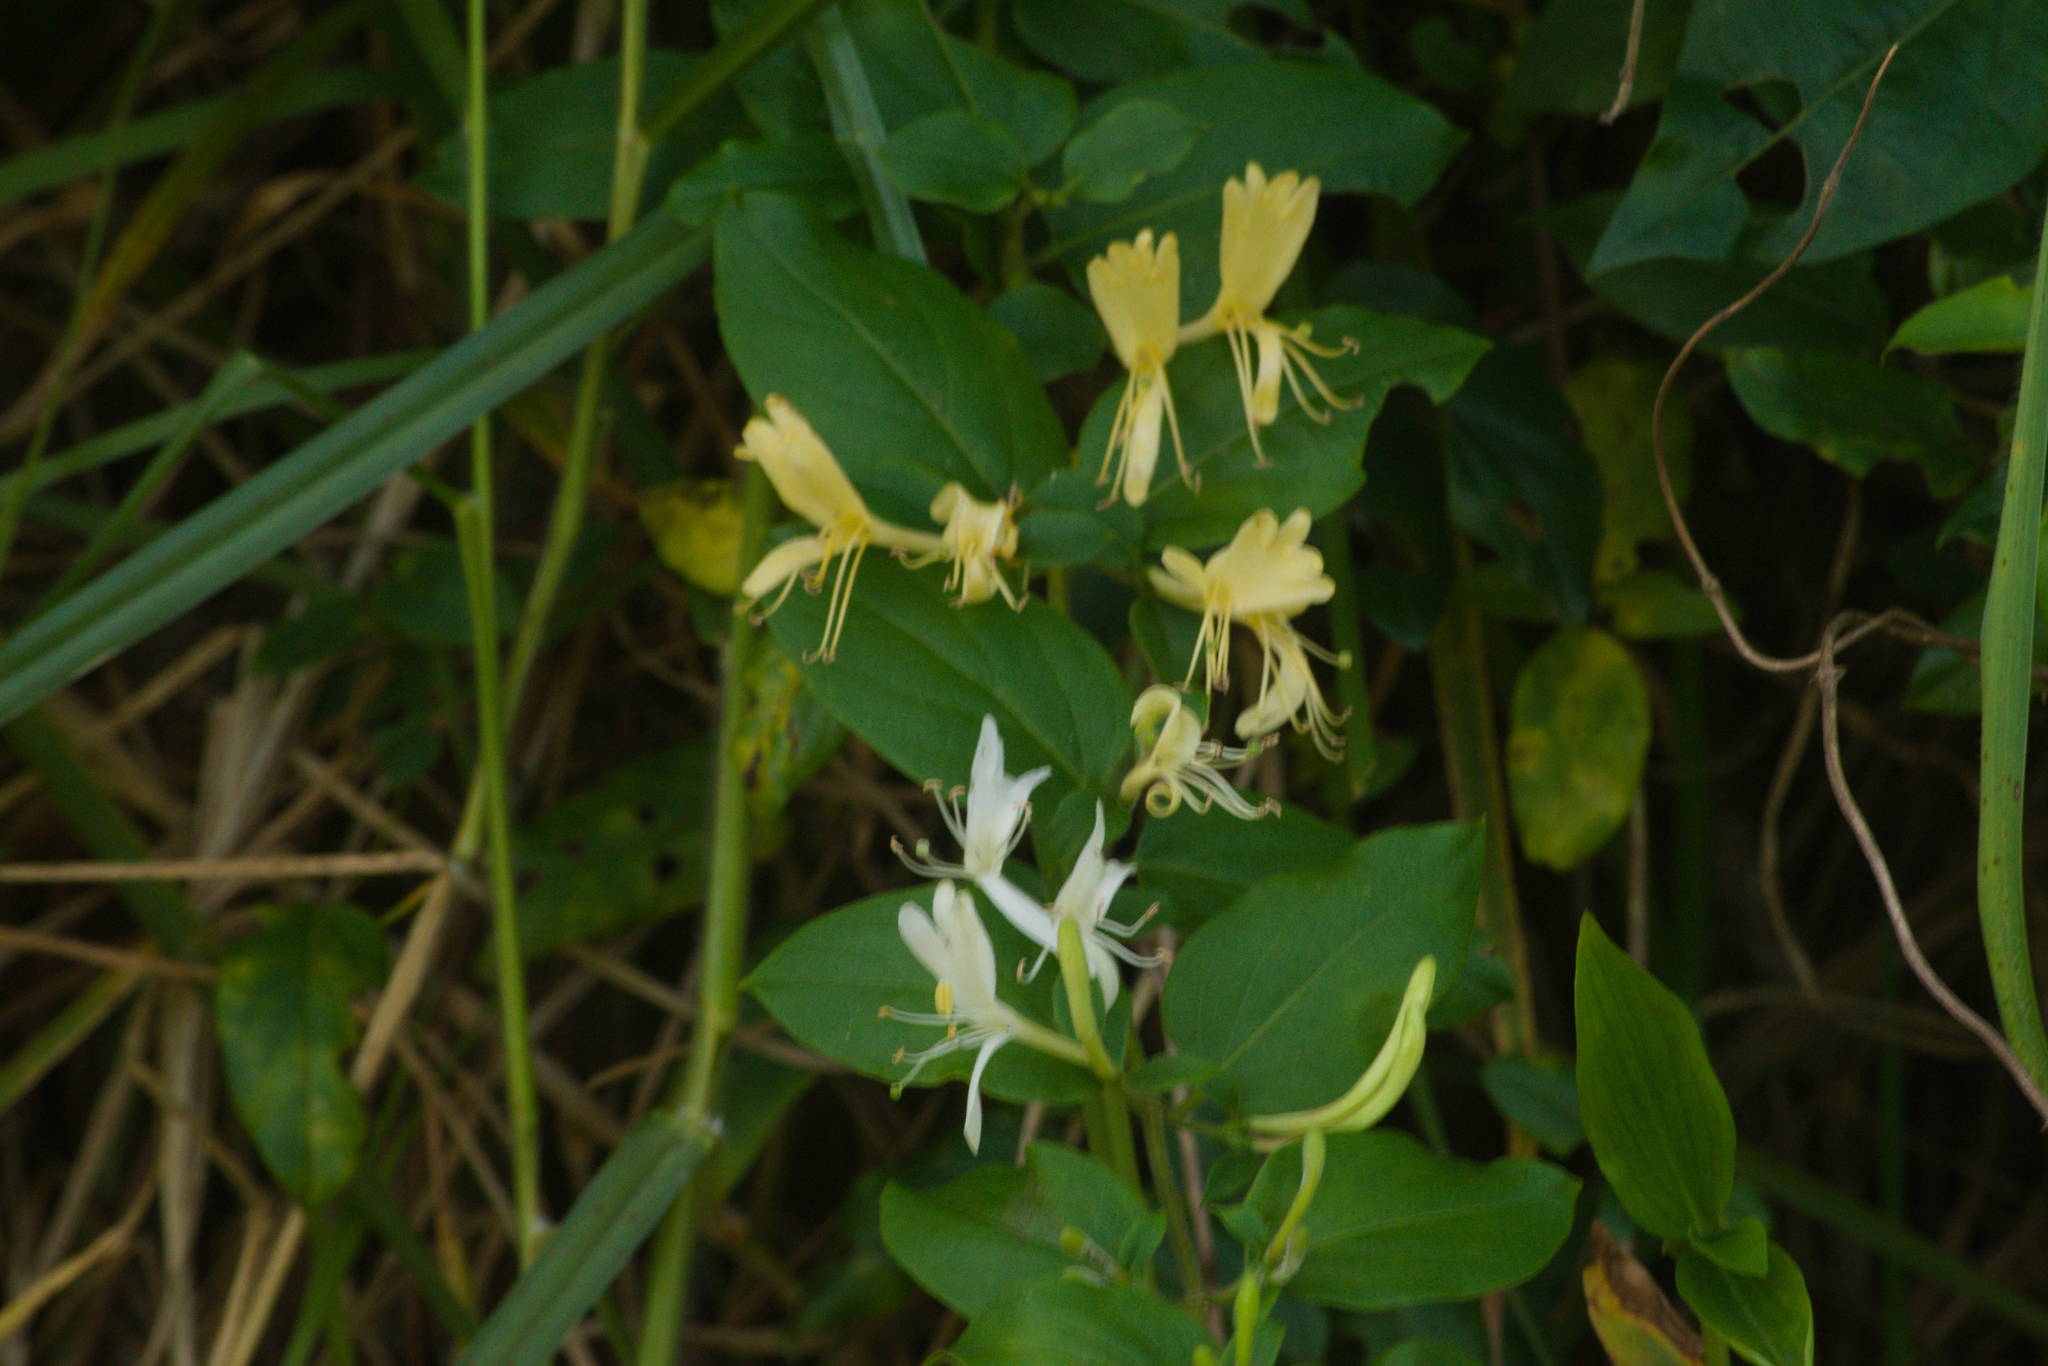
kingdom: Plantae
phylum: Tracheophyta
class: Magnoliopsida
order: Dipsacales
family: Caprifoliaceae
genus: Lonicera
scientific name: Lonicera japonica
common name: Japanese honeysuckle
